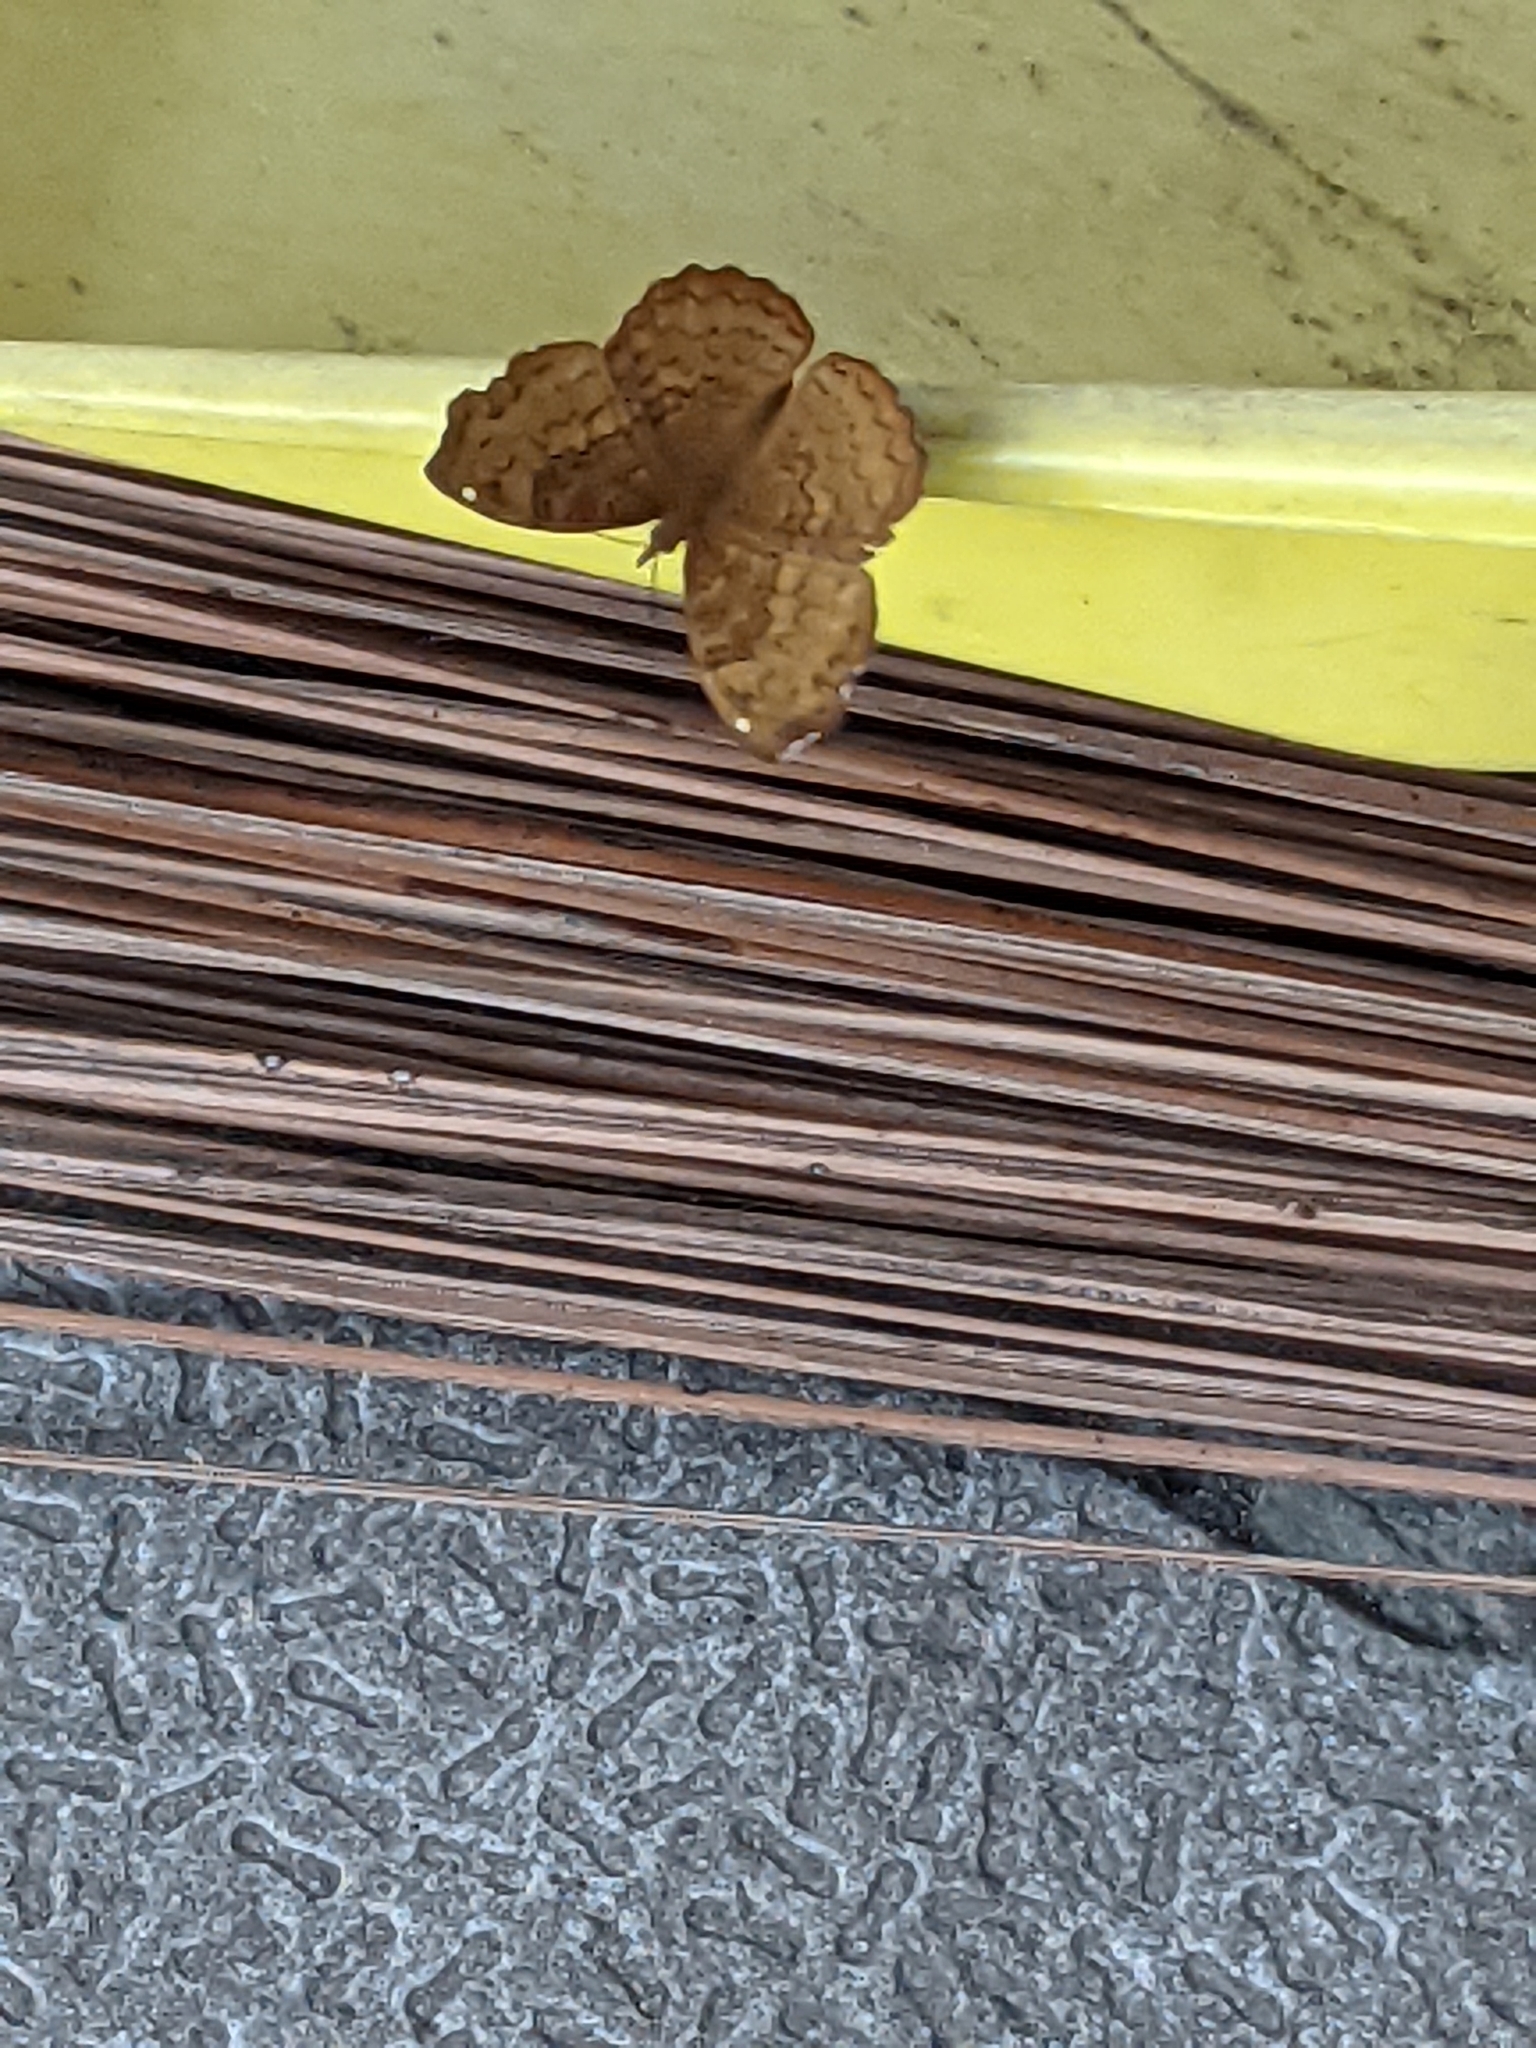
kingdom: Animalia
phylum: Arthropoda
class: Insecta
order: Lepidoptera
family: Nymphalidae
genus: Ariadne
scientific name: Ariadne merione
